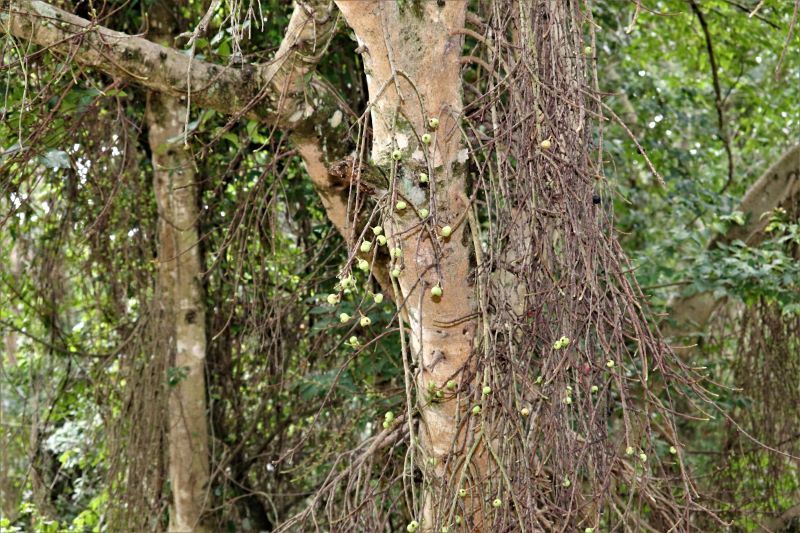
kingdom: Plantae
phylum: Tracheophyta
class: Magnoliopsida
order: Rosales
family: Moraceae
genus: Ficus
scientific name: Ficus sur
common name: Cape fig
